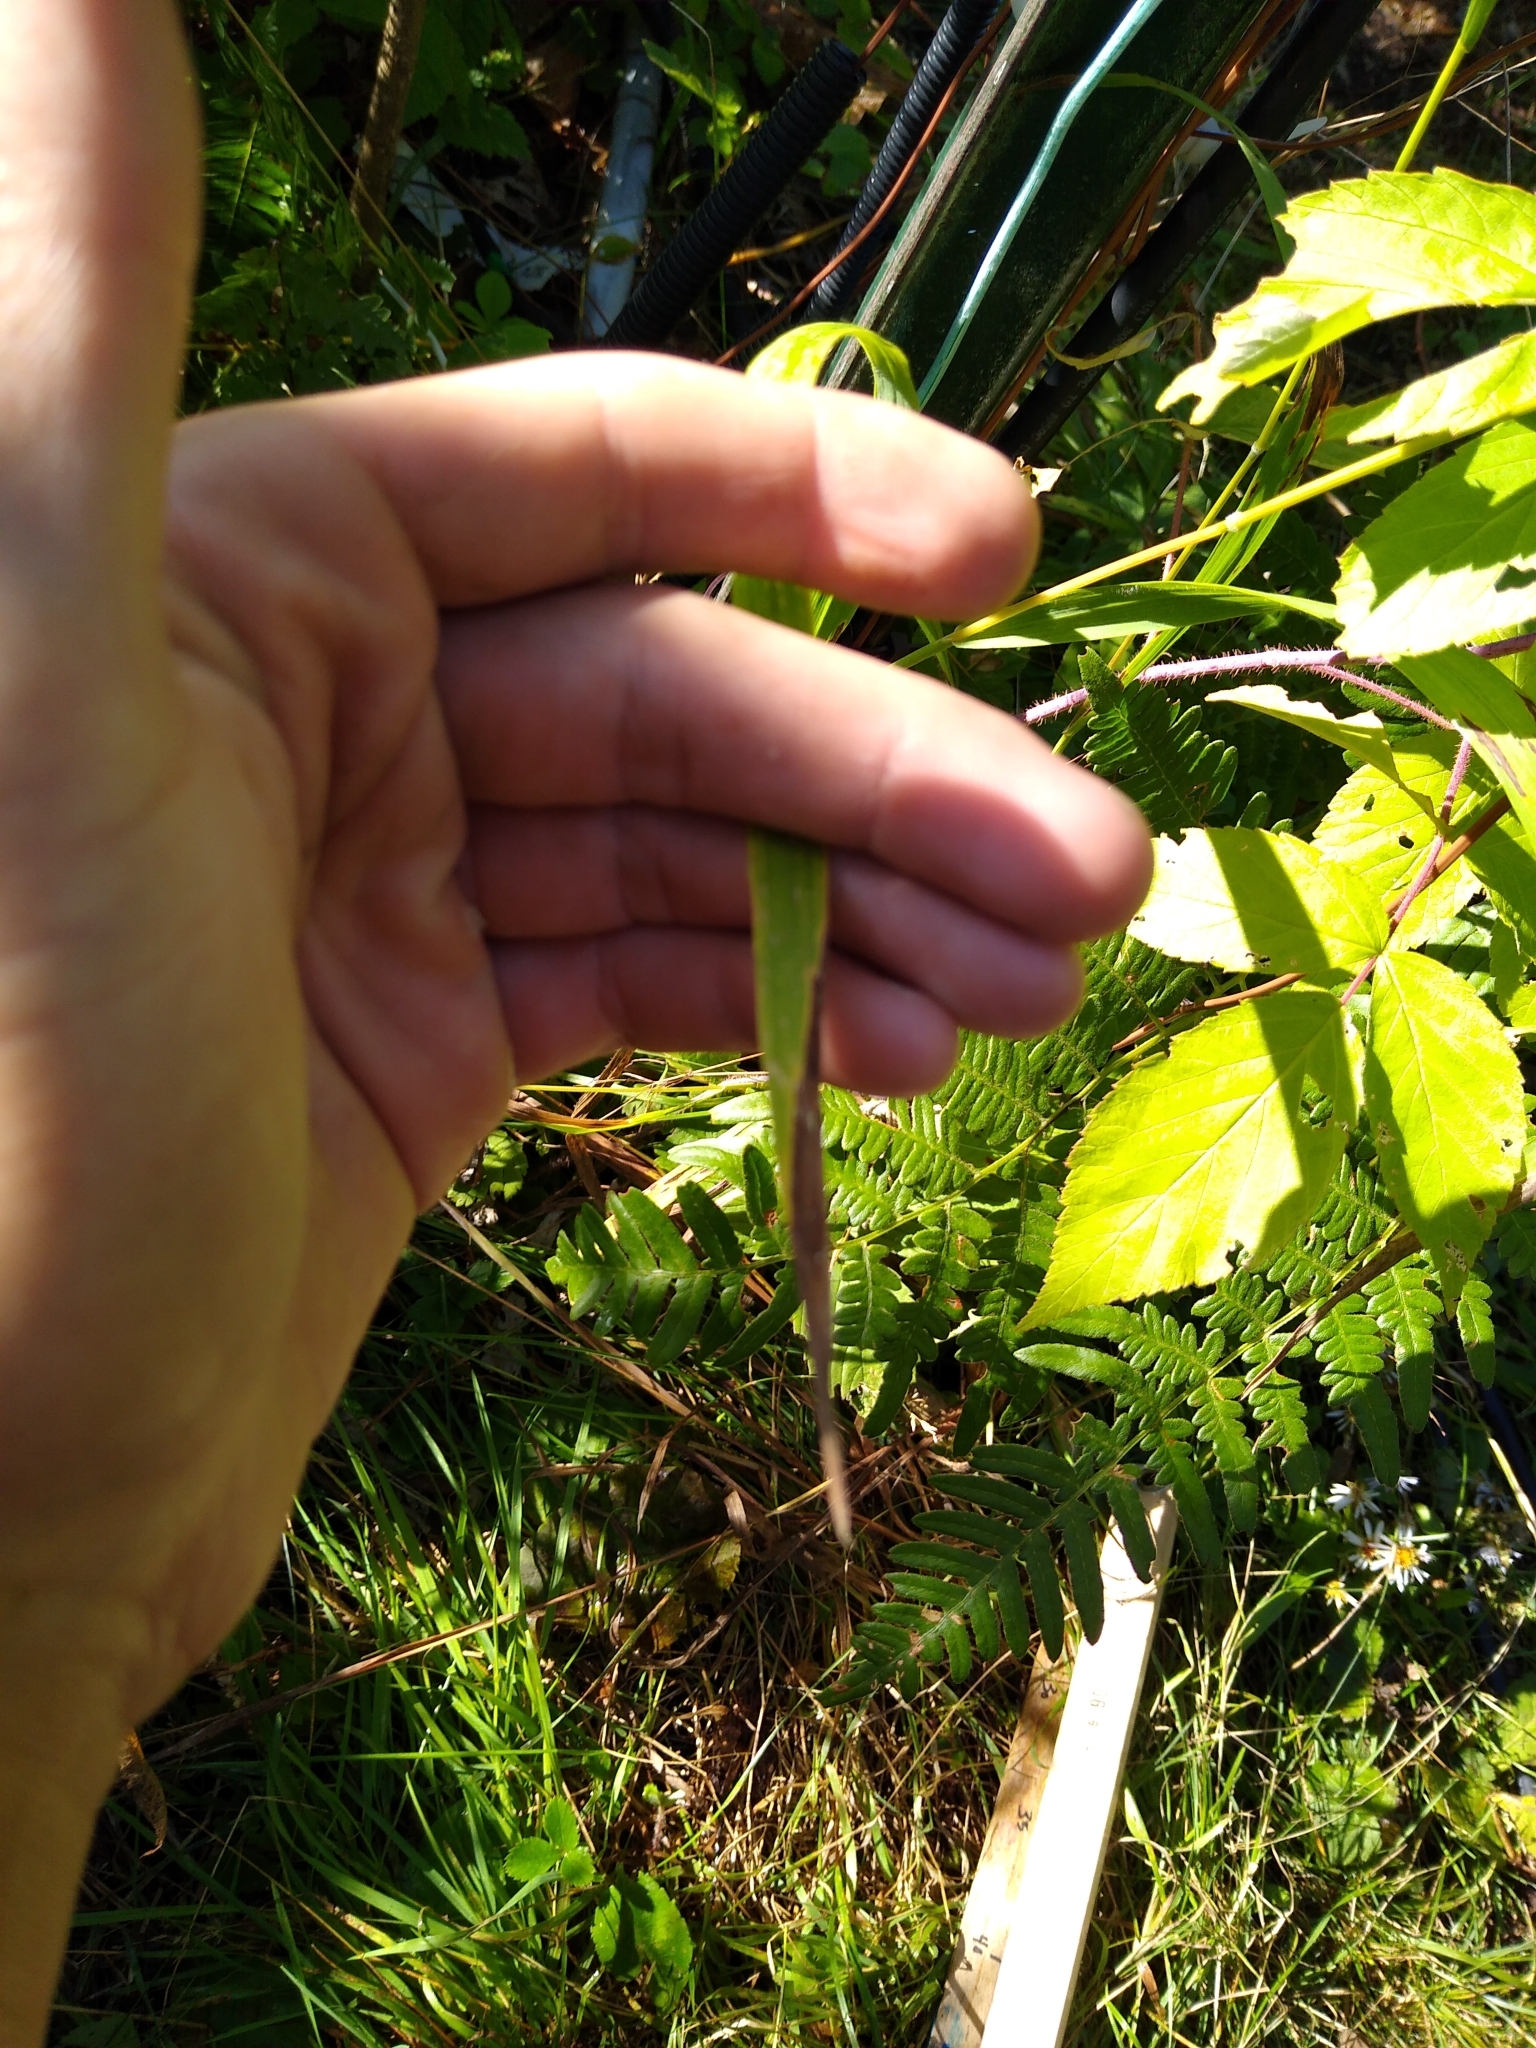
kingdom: Plantae
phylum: Tracheophyta
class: Liliopsida
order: Poales
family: Poaceae
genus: Bromus
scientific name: Bromus ciliatus
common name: Fringe brome
